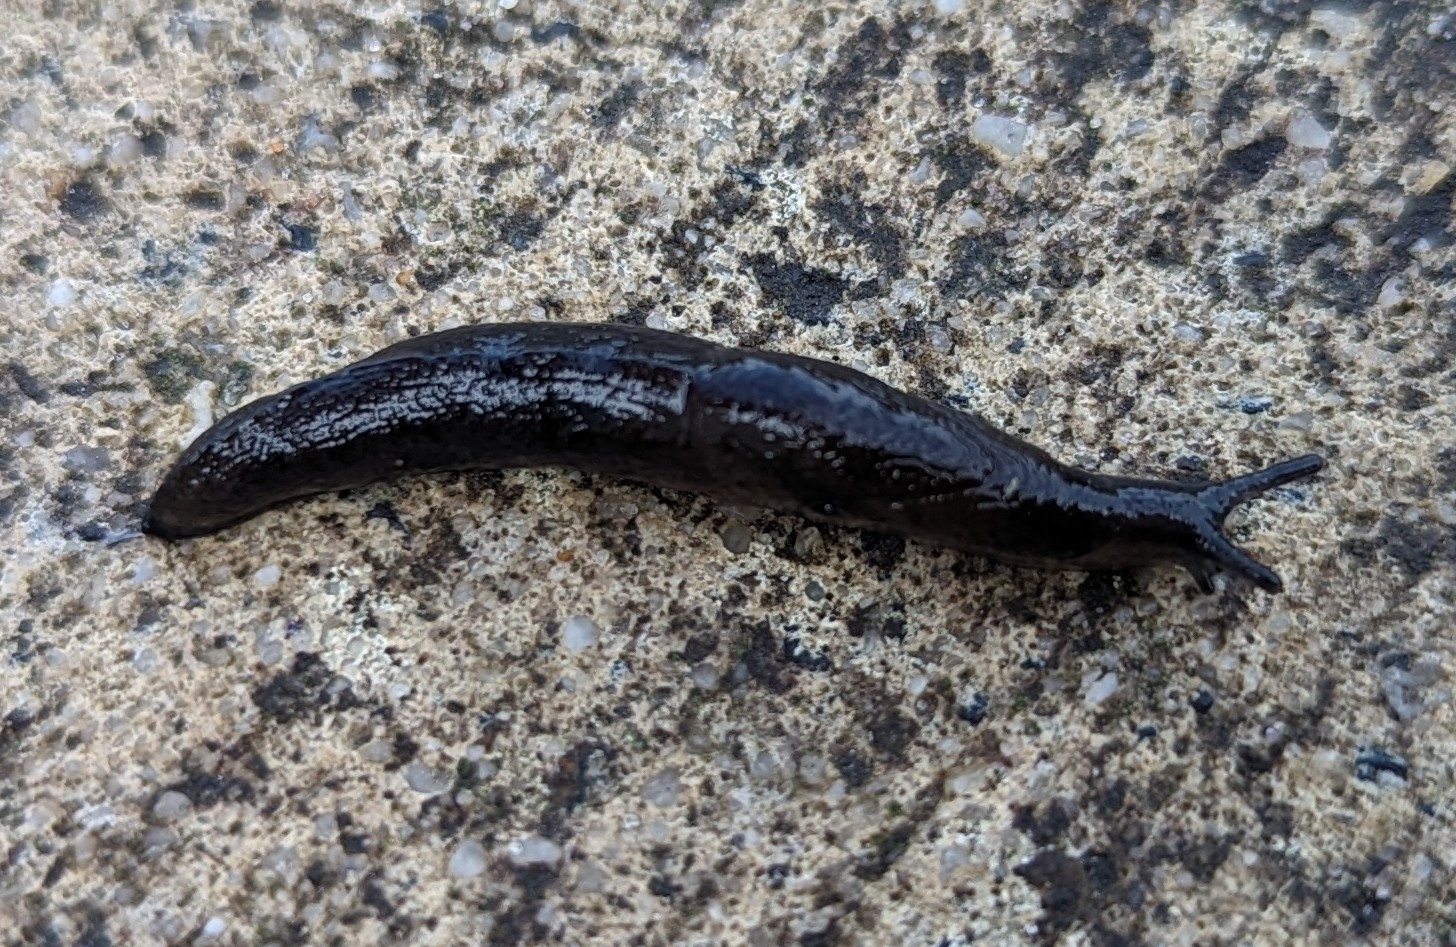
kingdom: Animalia
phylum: Mollusca
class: Gastropoda
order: Stylommatophora
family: Milacidae
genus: Milax
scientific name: Milax gagates
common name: Greenhouse slug
